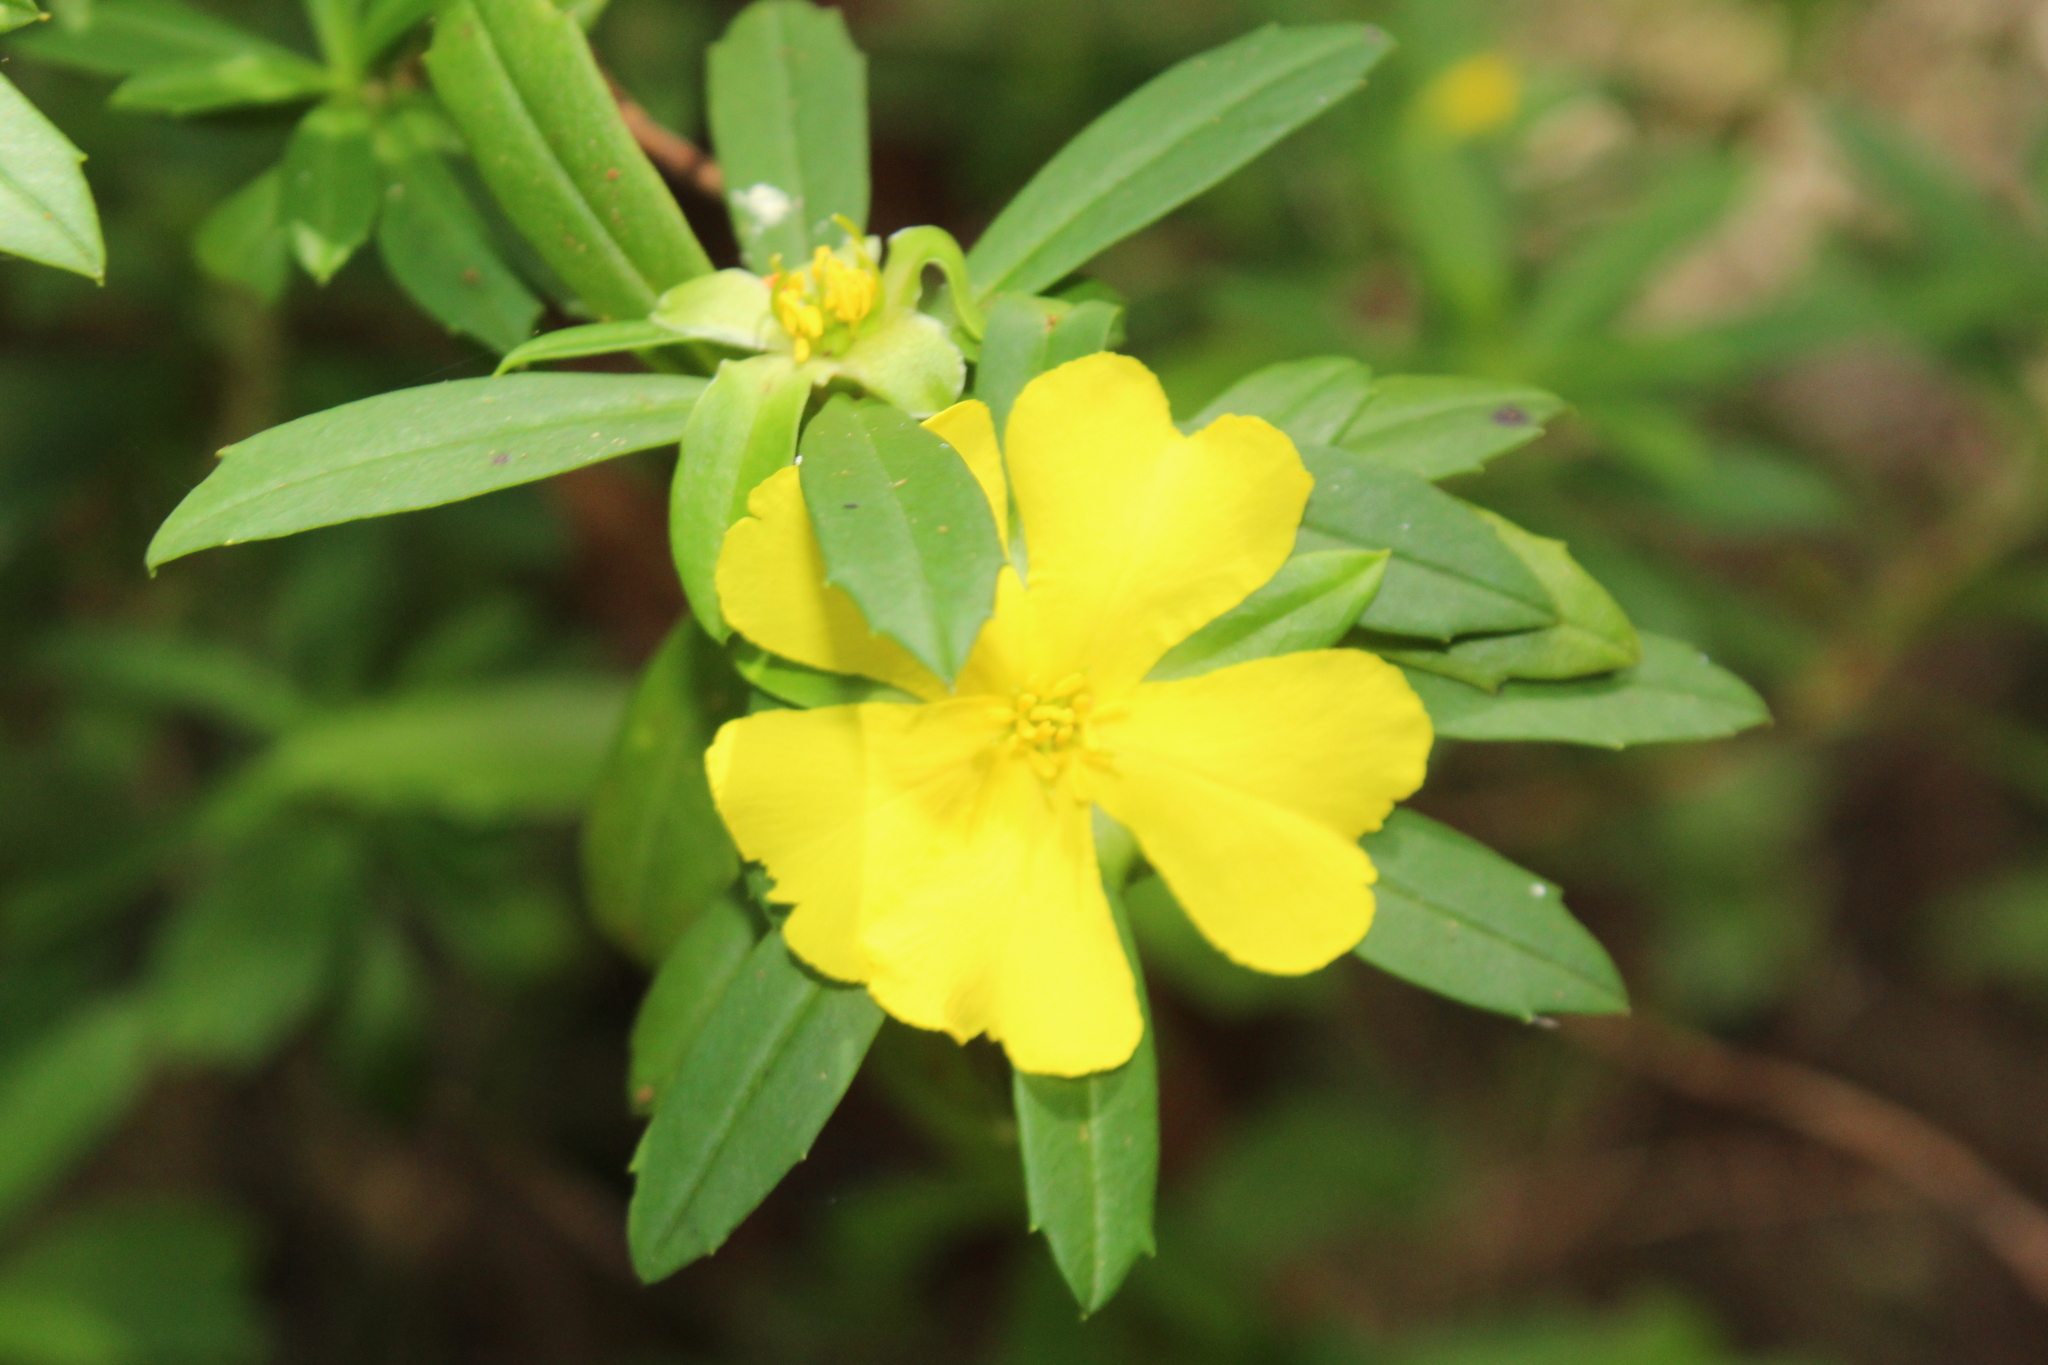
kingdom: Plantae
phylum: Tracheophyta
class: Magnoliopsida
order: Dilleniales
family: Dilleniaceae
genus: Hibbertia
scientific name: Hibbertia cuneiformis
